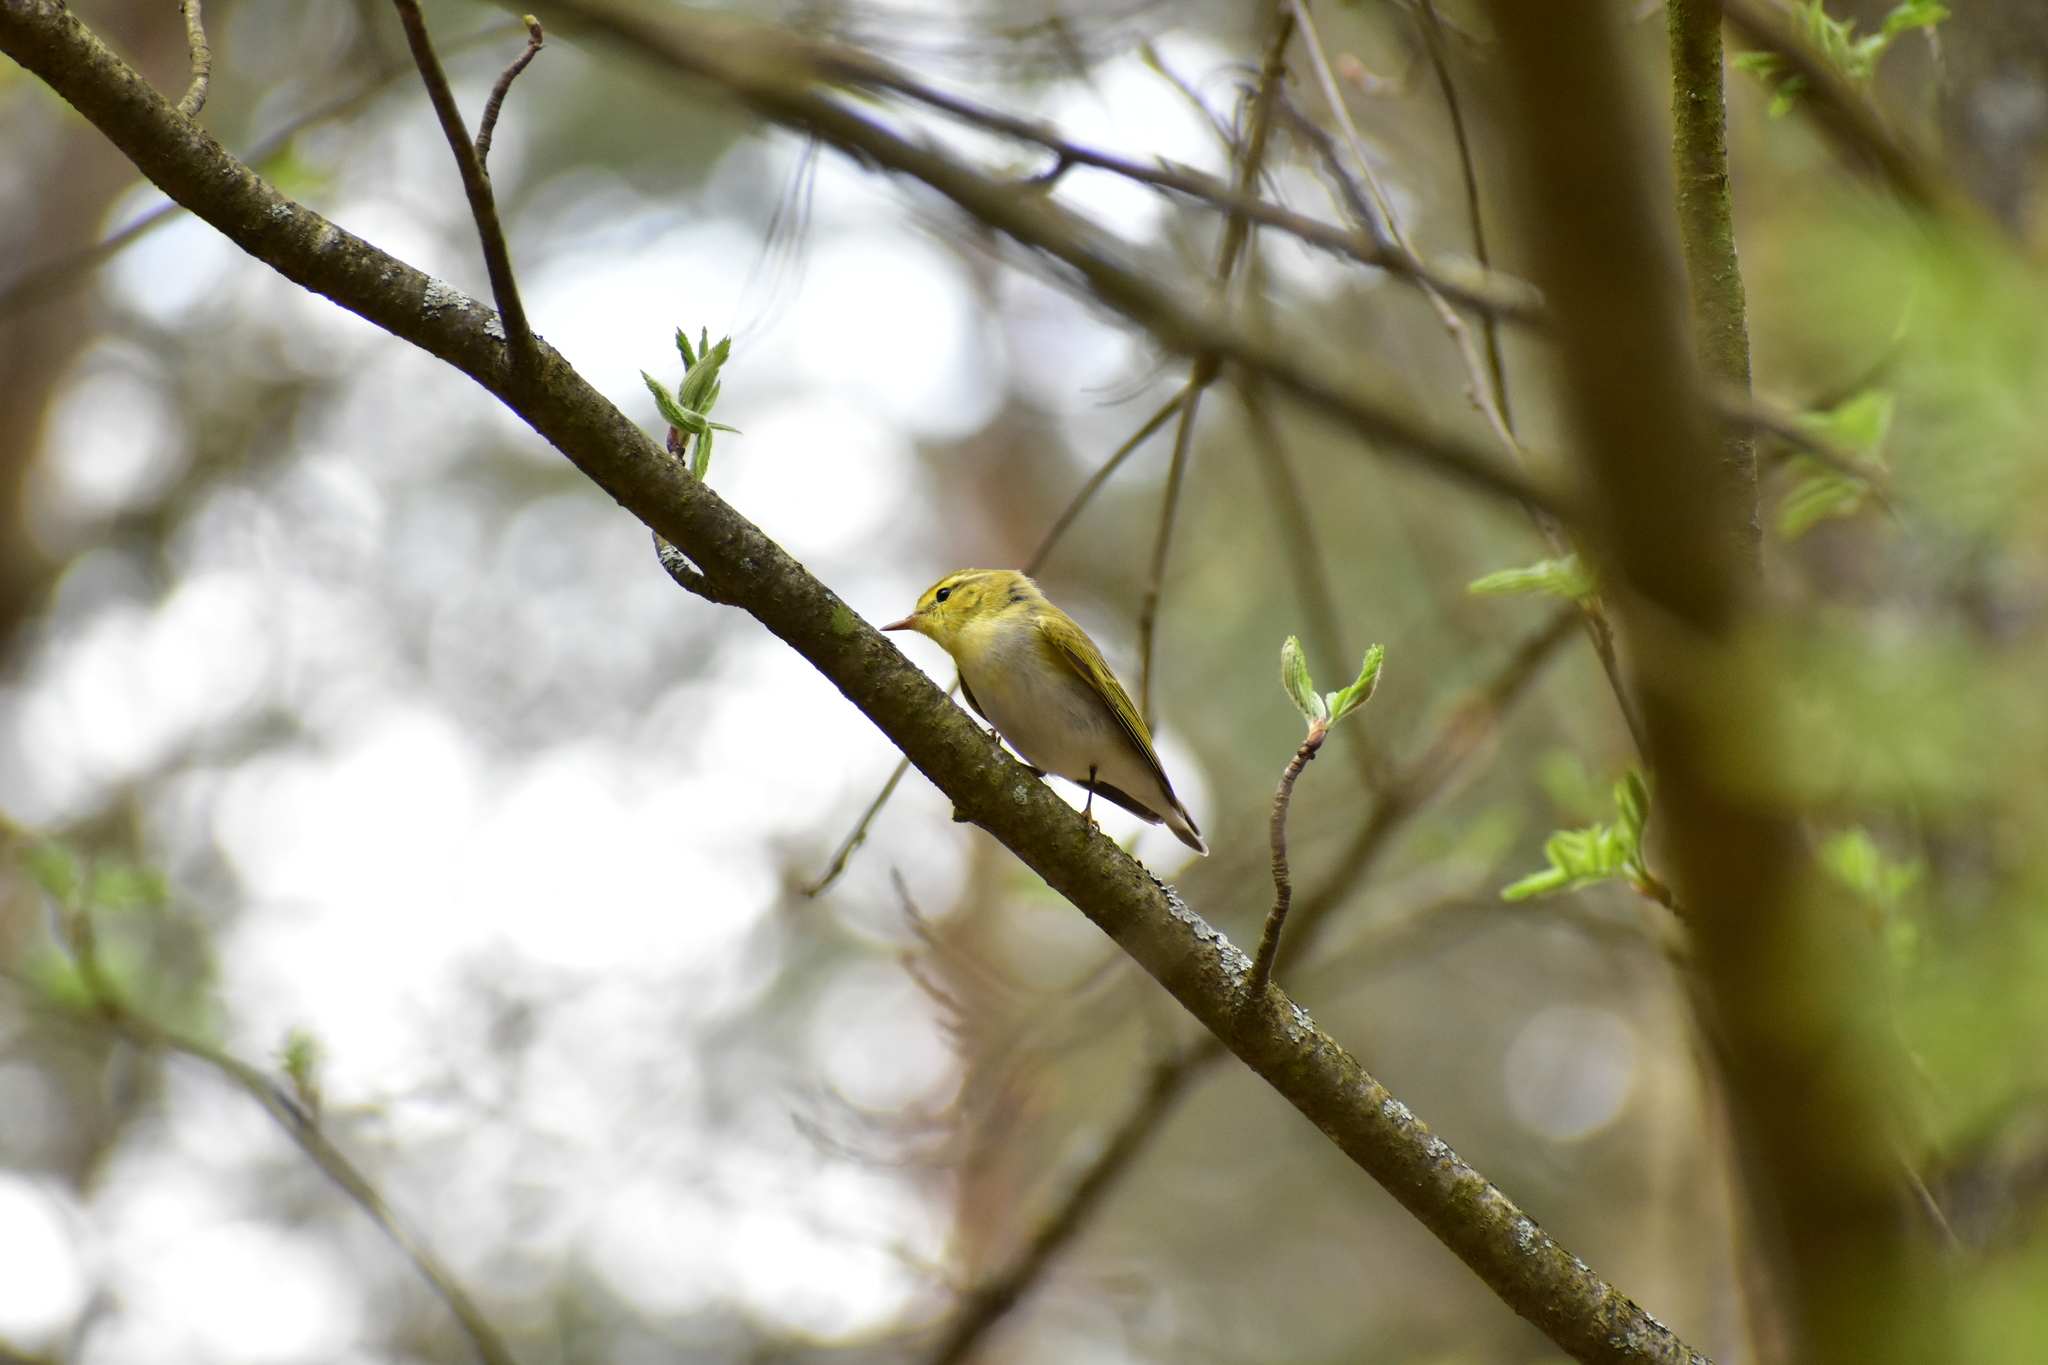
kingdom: Animalia
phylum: Chordata
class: Aves
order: Passeriformes
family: Phylloscopidae
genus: Phylloscopus
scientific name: Phylloscopus sibillatrix
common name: Wood warbler
